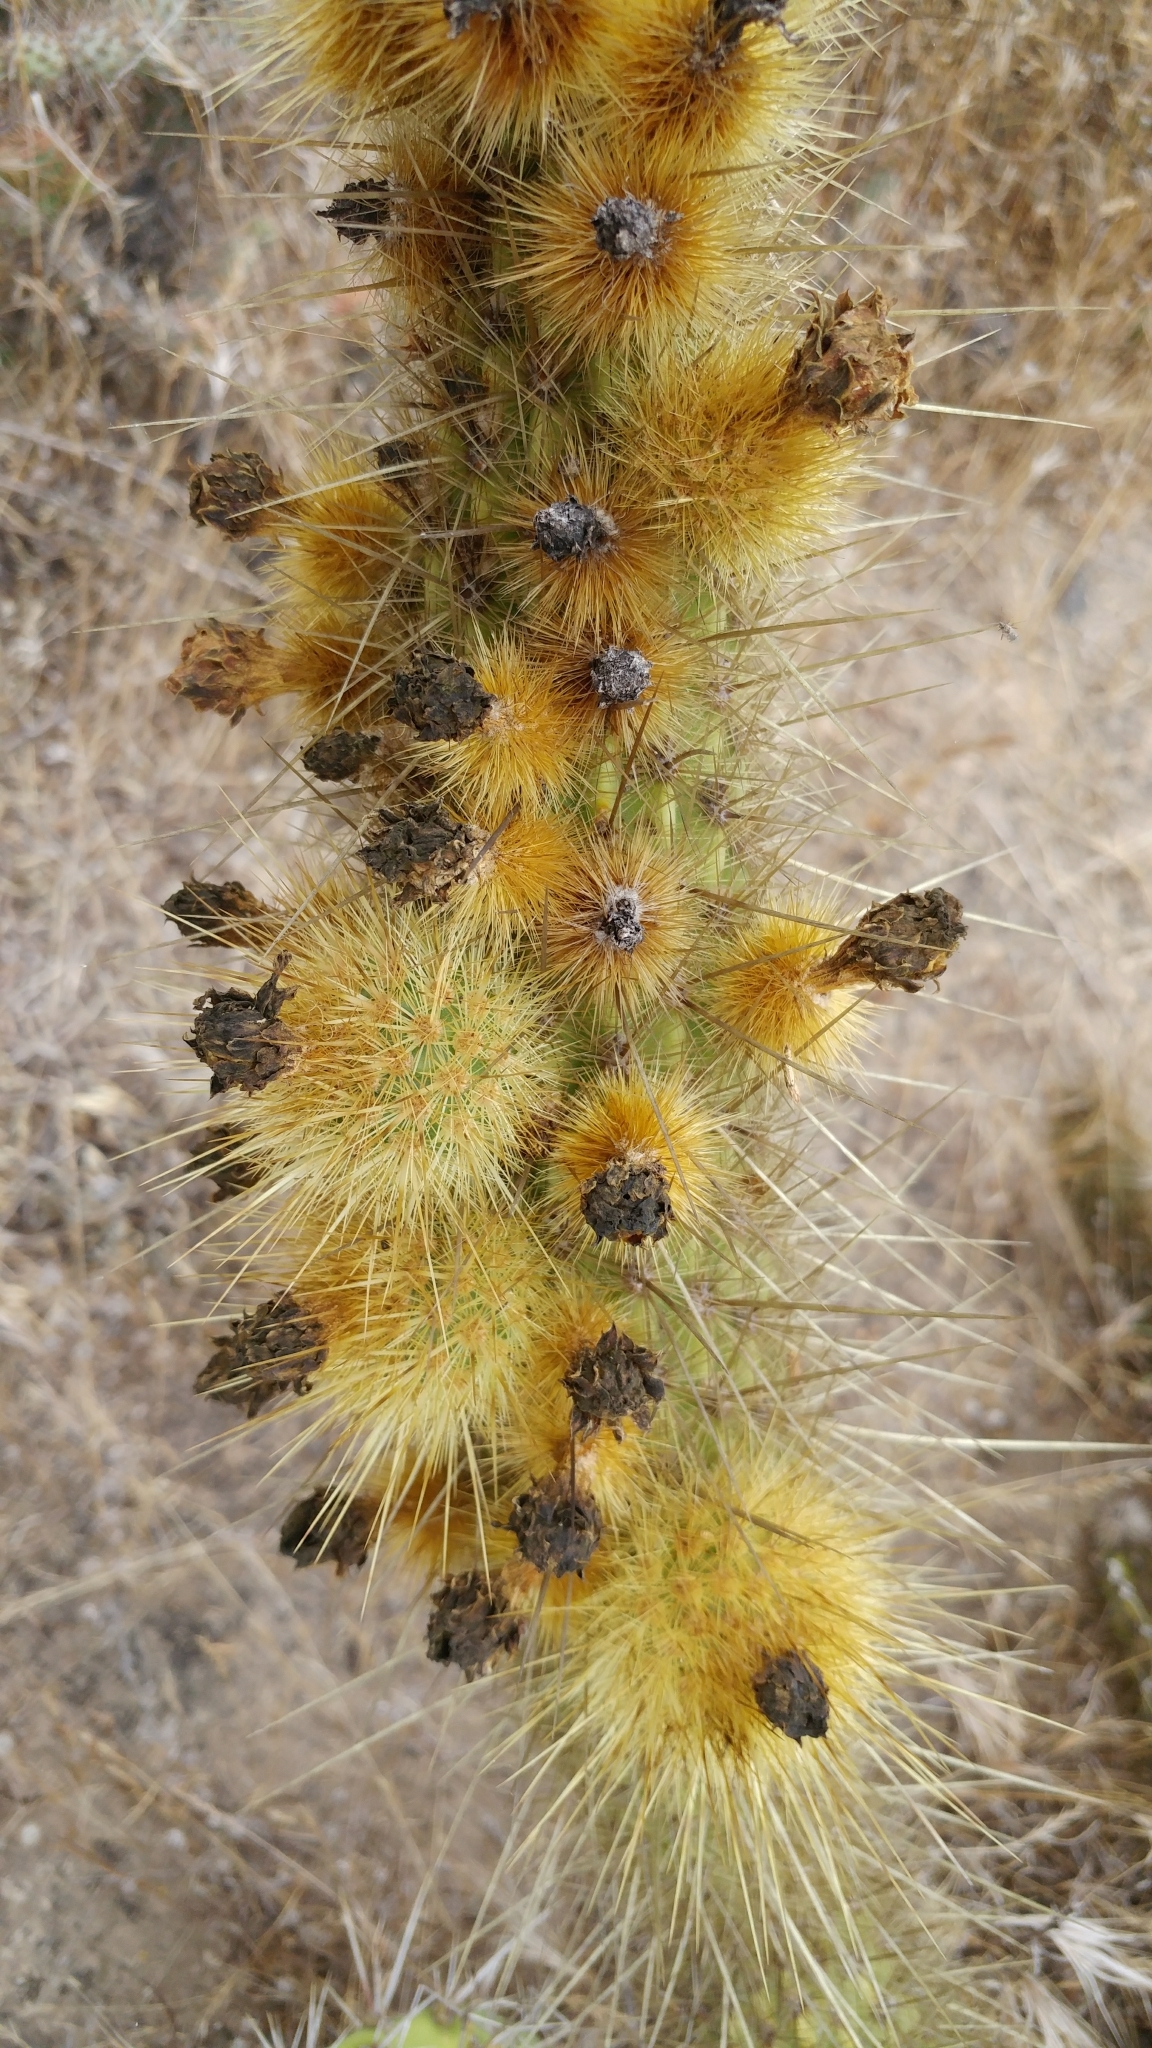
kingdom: Plantae
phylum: Tracheophyta
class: Magnoliopsida
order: Caryophyllales
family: Cactaceae
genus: Bergerocactus
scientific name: Bergerocactus emoryi
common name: Golden snakecactus
